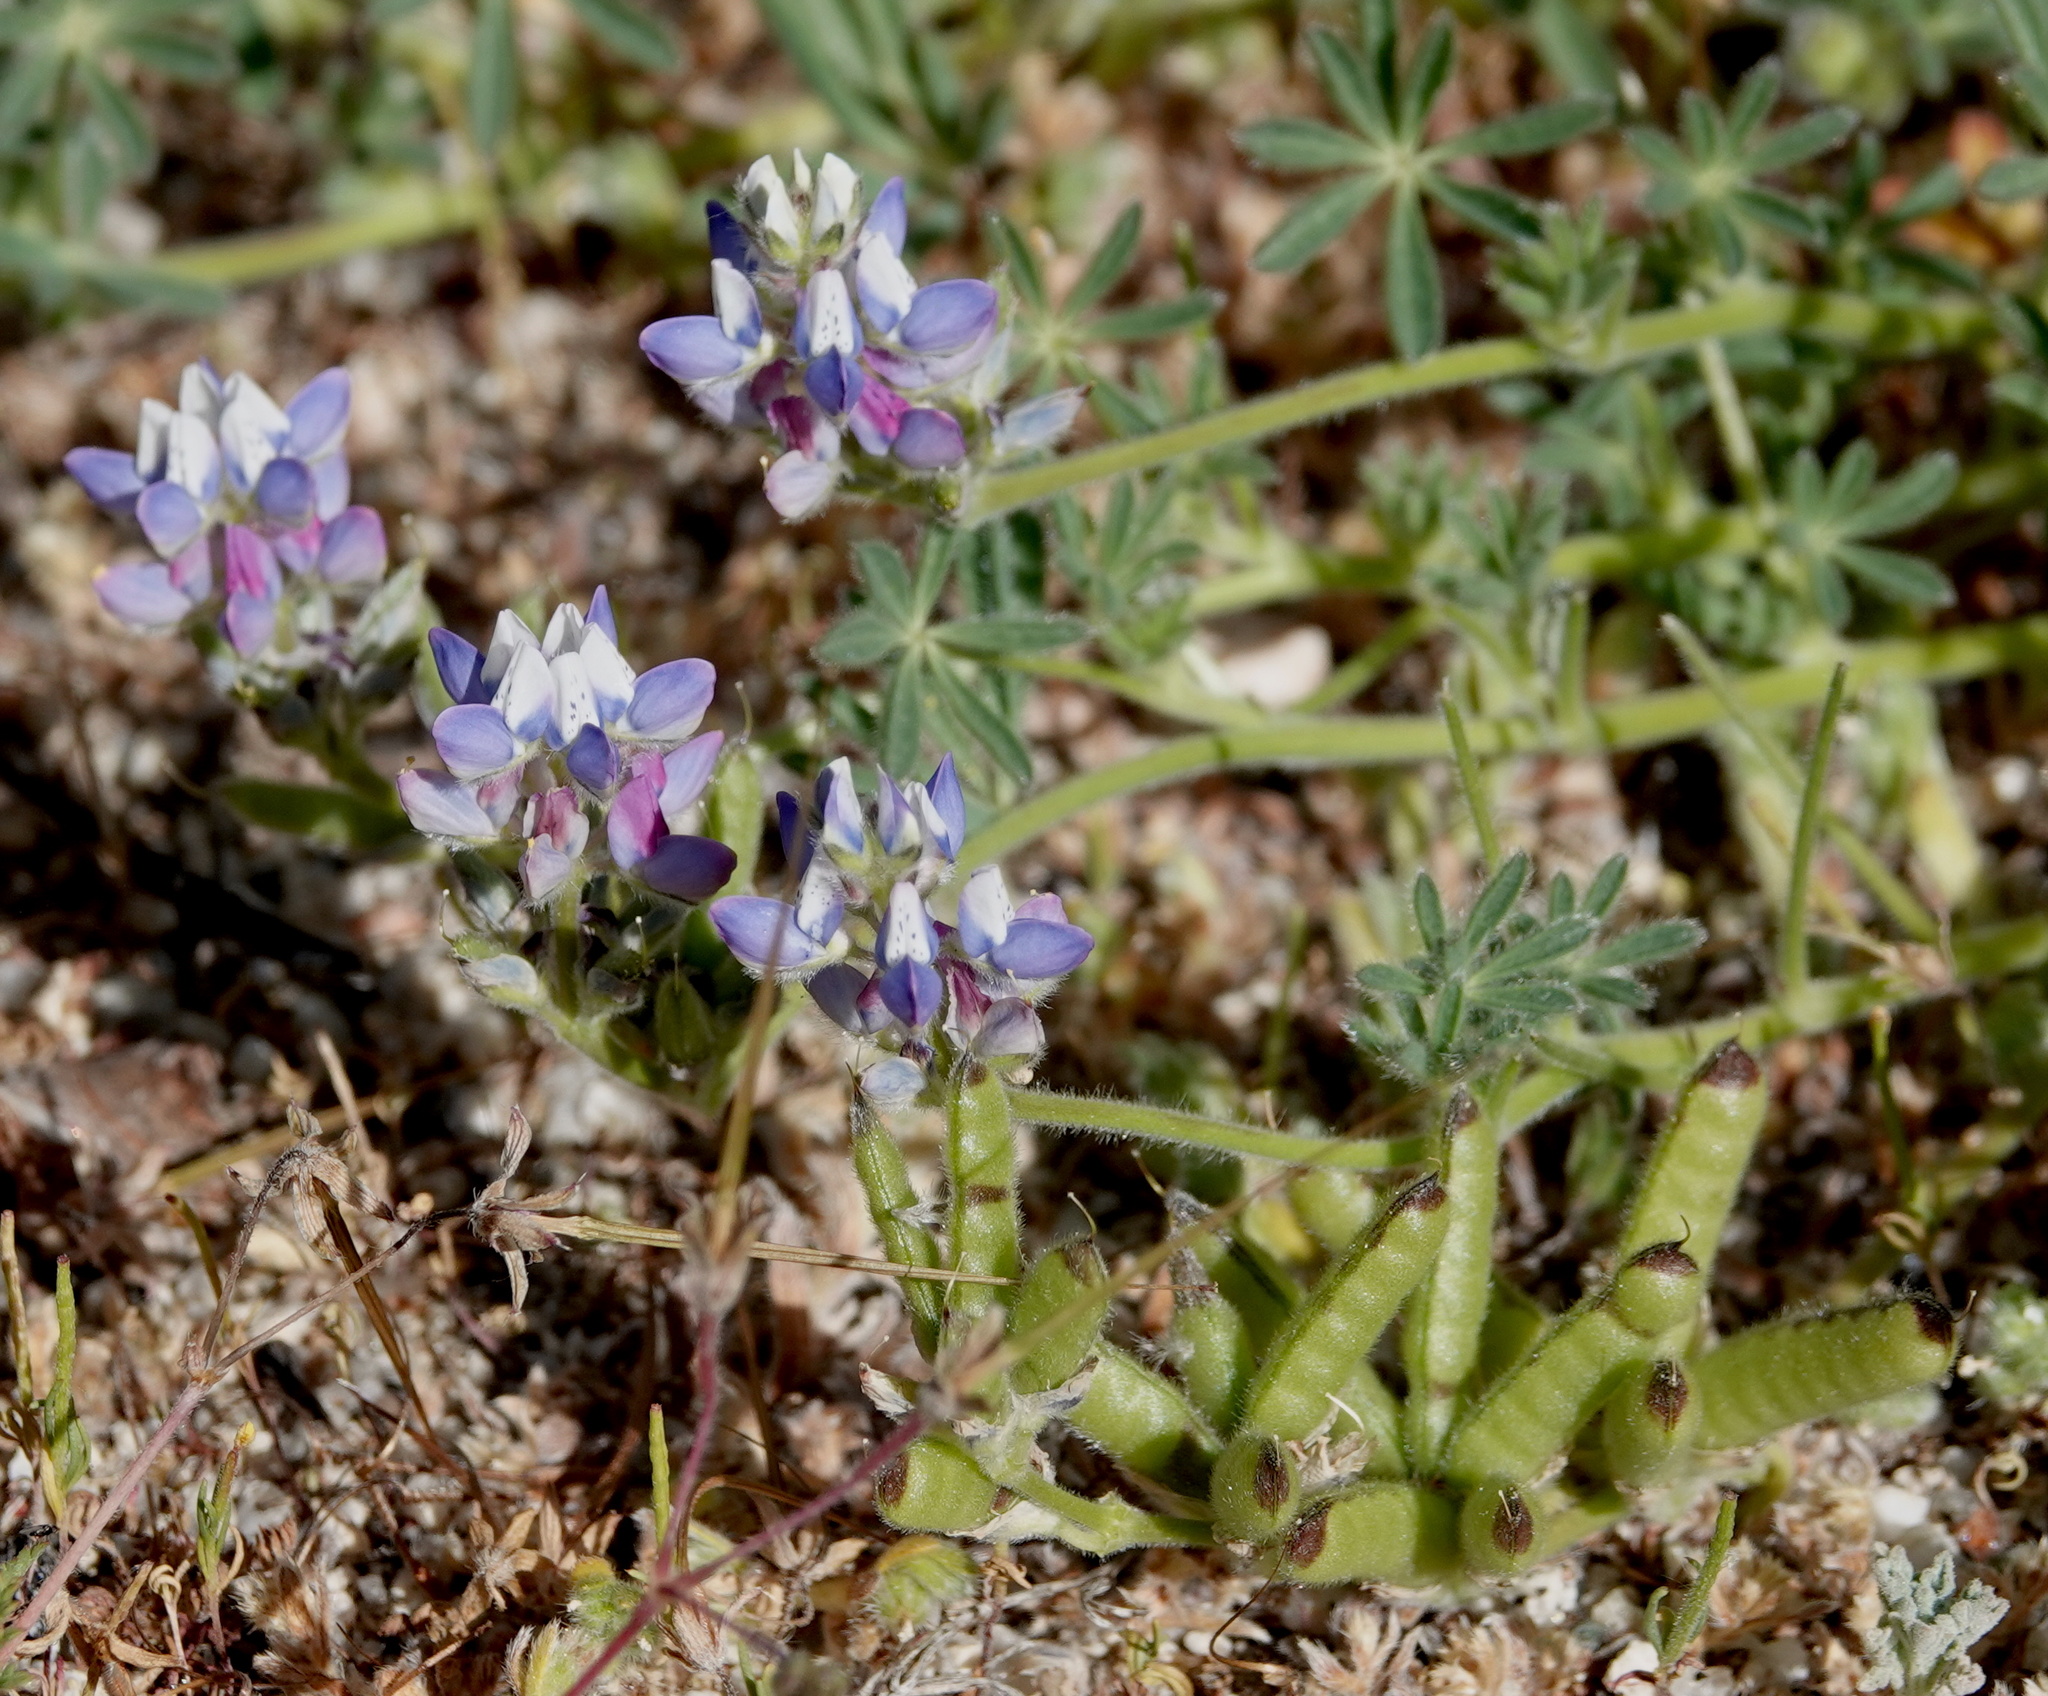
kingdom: Plantae
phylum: Tracheophyta
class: Magnoliopsida
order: Fabales
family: Fabaceae
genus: Lupinus
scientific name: Lupinus bicolor
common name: Miniature lupine
